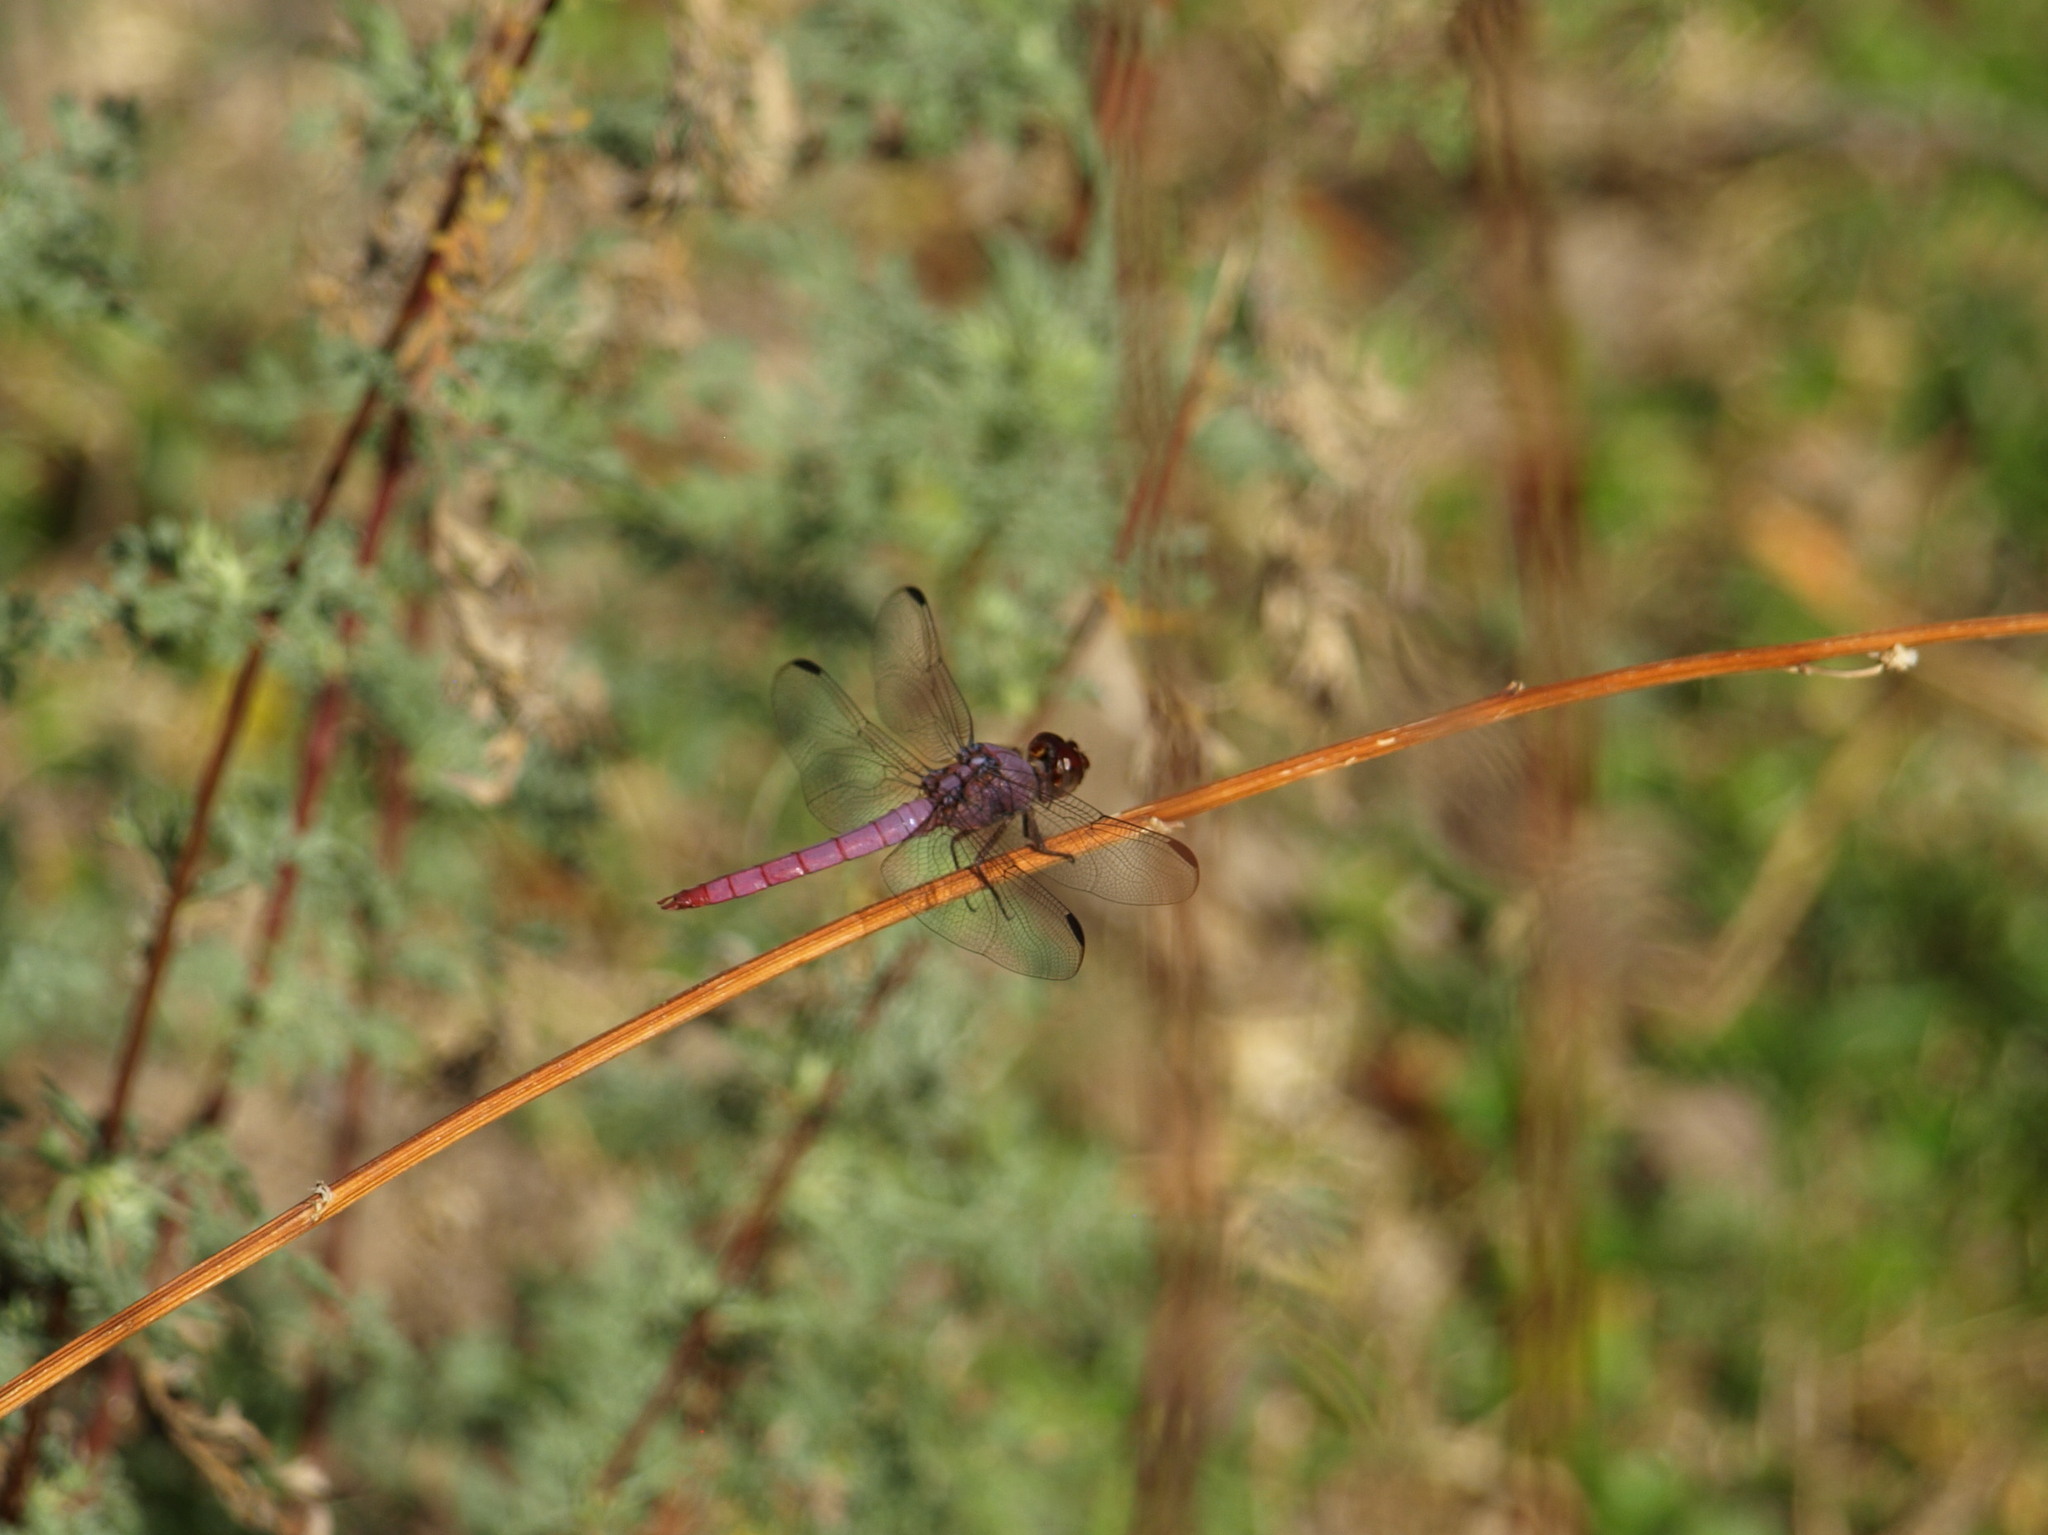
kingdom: Animalia
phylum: Arthropoda
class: Insecta
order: Odonata
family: Libellulidae
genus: Orthemis
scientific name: Orthemis ferruginea
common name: Roseate skimmer
